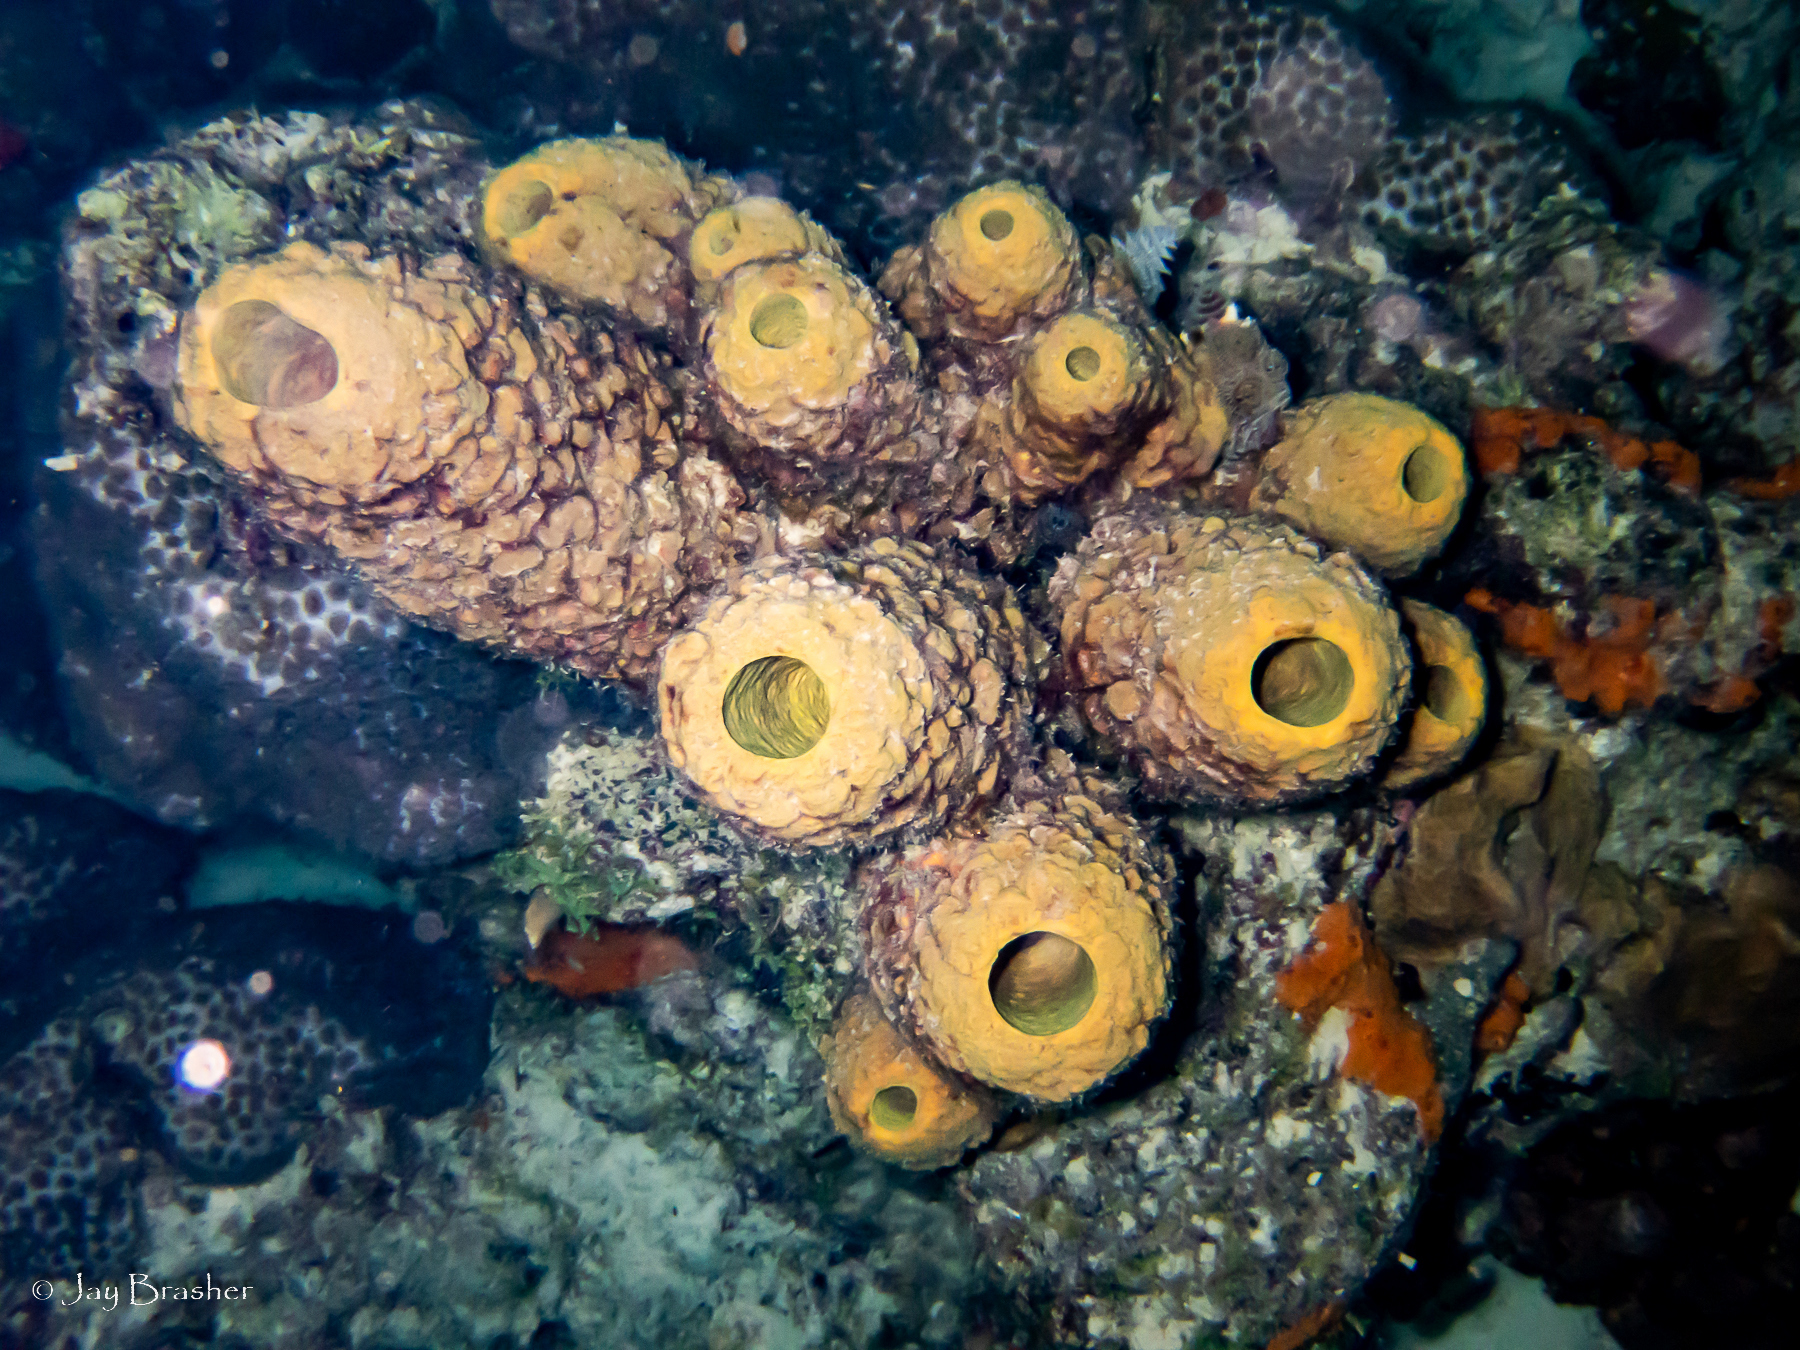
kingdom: Animalia
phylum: Porifera
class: Demospongiae
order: Verongiida
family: Aplysinidae
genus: Aplysina
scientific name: Aplysina archeri
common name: Stove-pipe sponge
